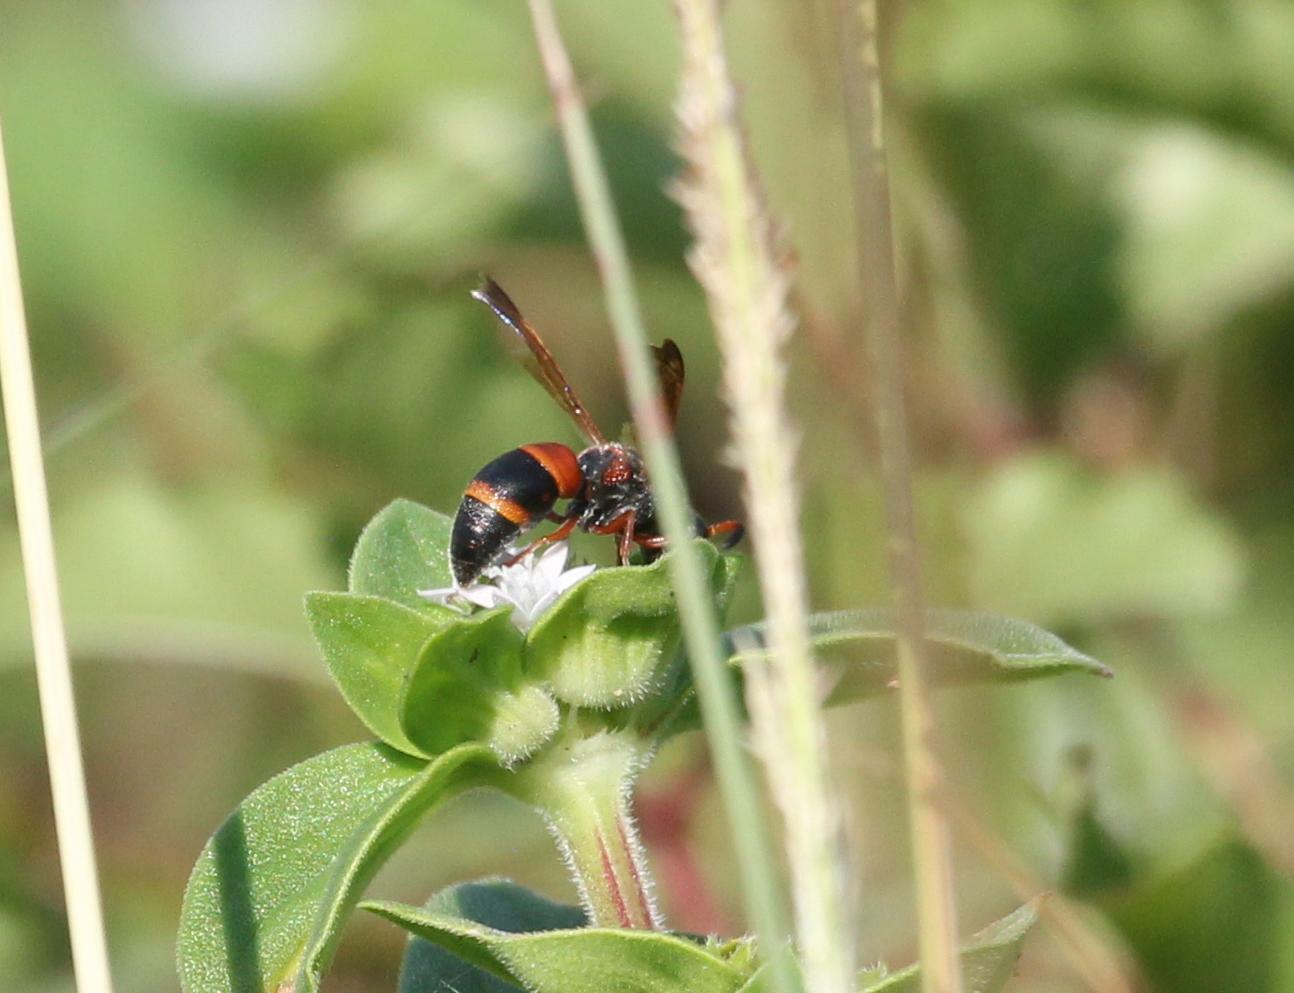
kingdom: Animalia
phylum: Arthropoda
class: Insecta
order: Hymenoptera
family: Eumenidae
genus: Pachodynerus
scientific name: Pachodynerus erynnis
